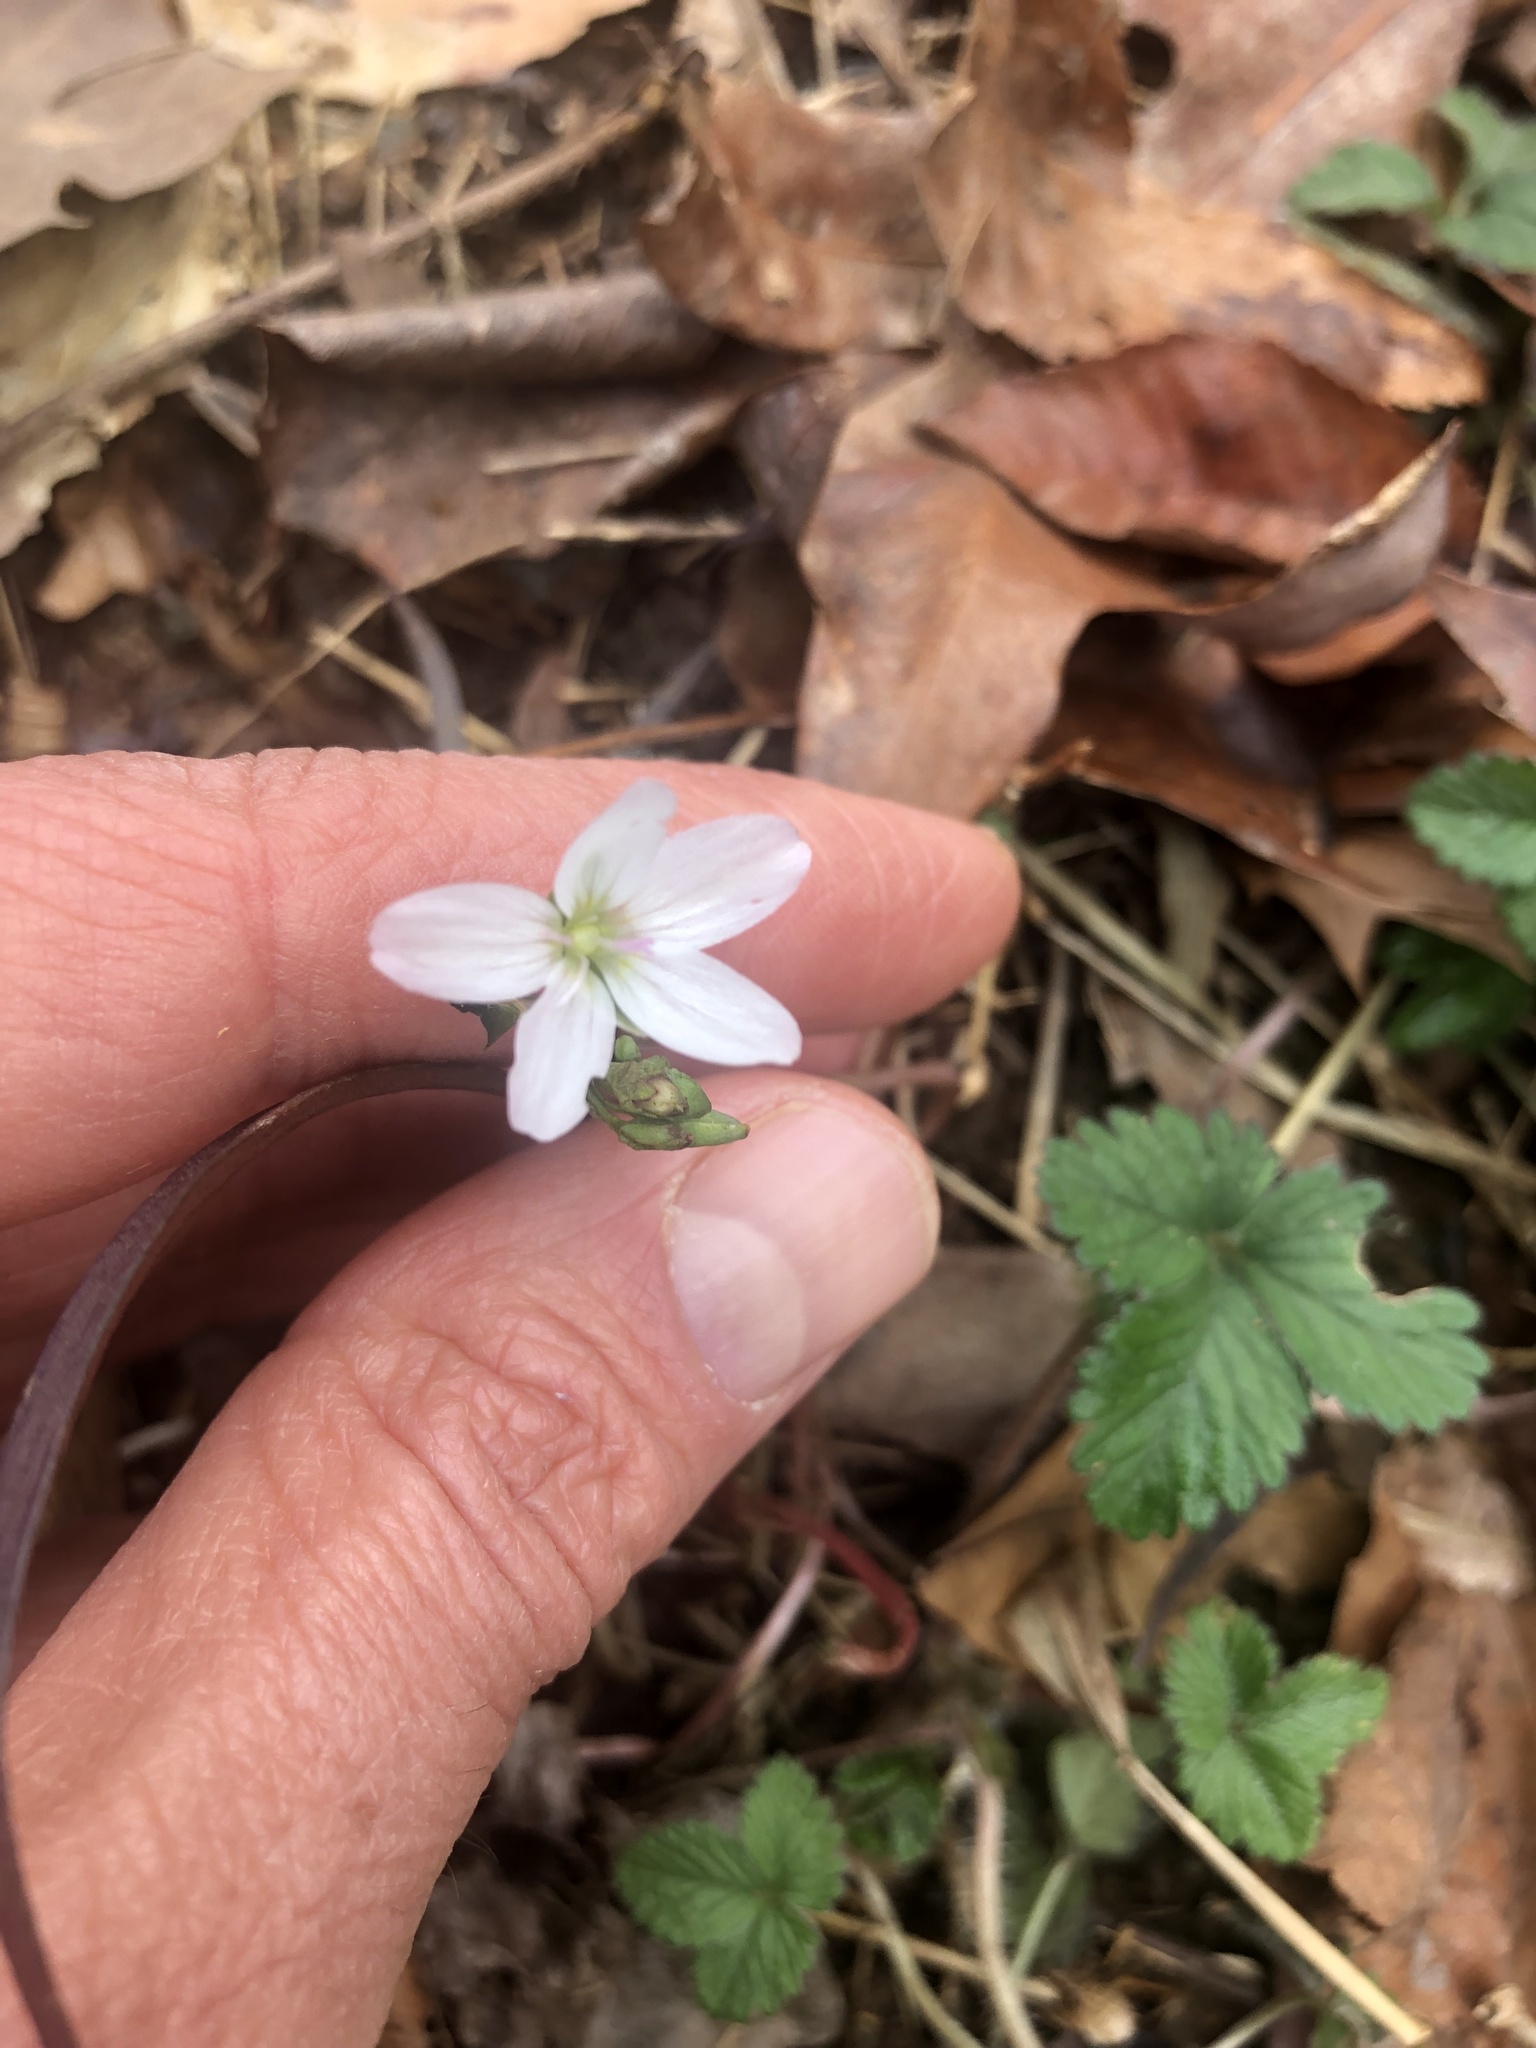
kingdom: Plantae
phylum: Tracheophyta
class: Magnoliopsida
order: Caryophyllales
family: Montiaceae
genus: Claytonia
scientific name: Claytonia virginica
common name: Virginia springbeauty
